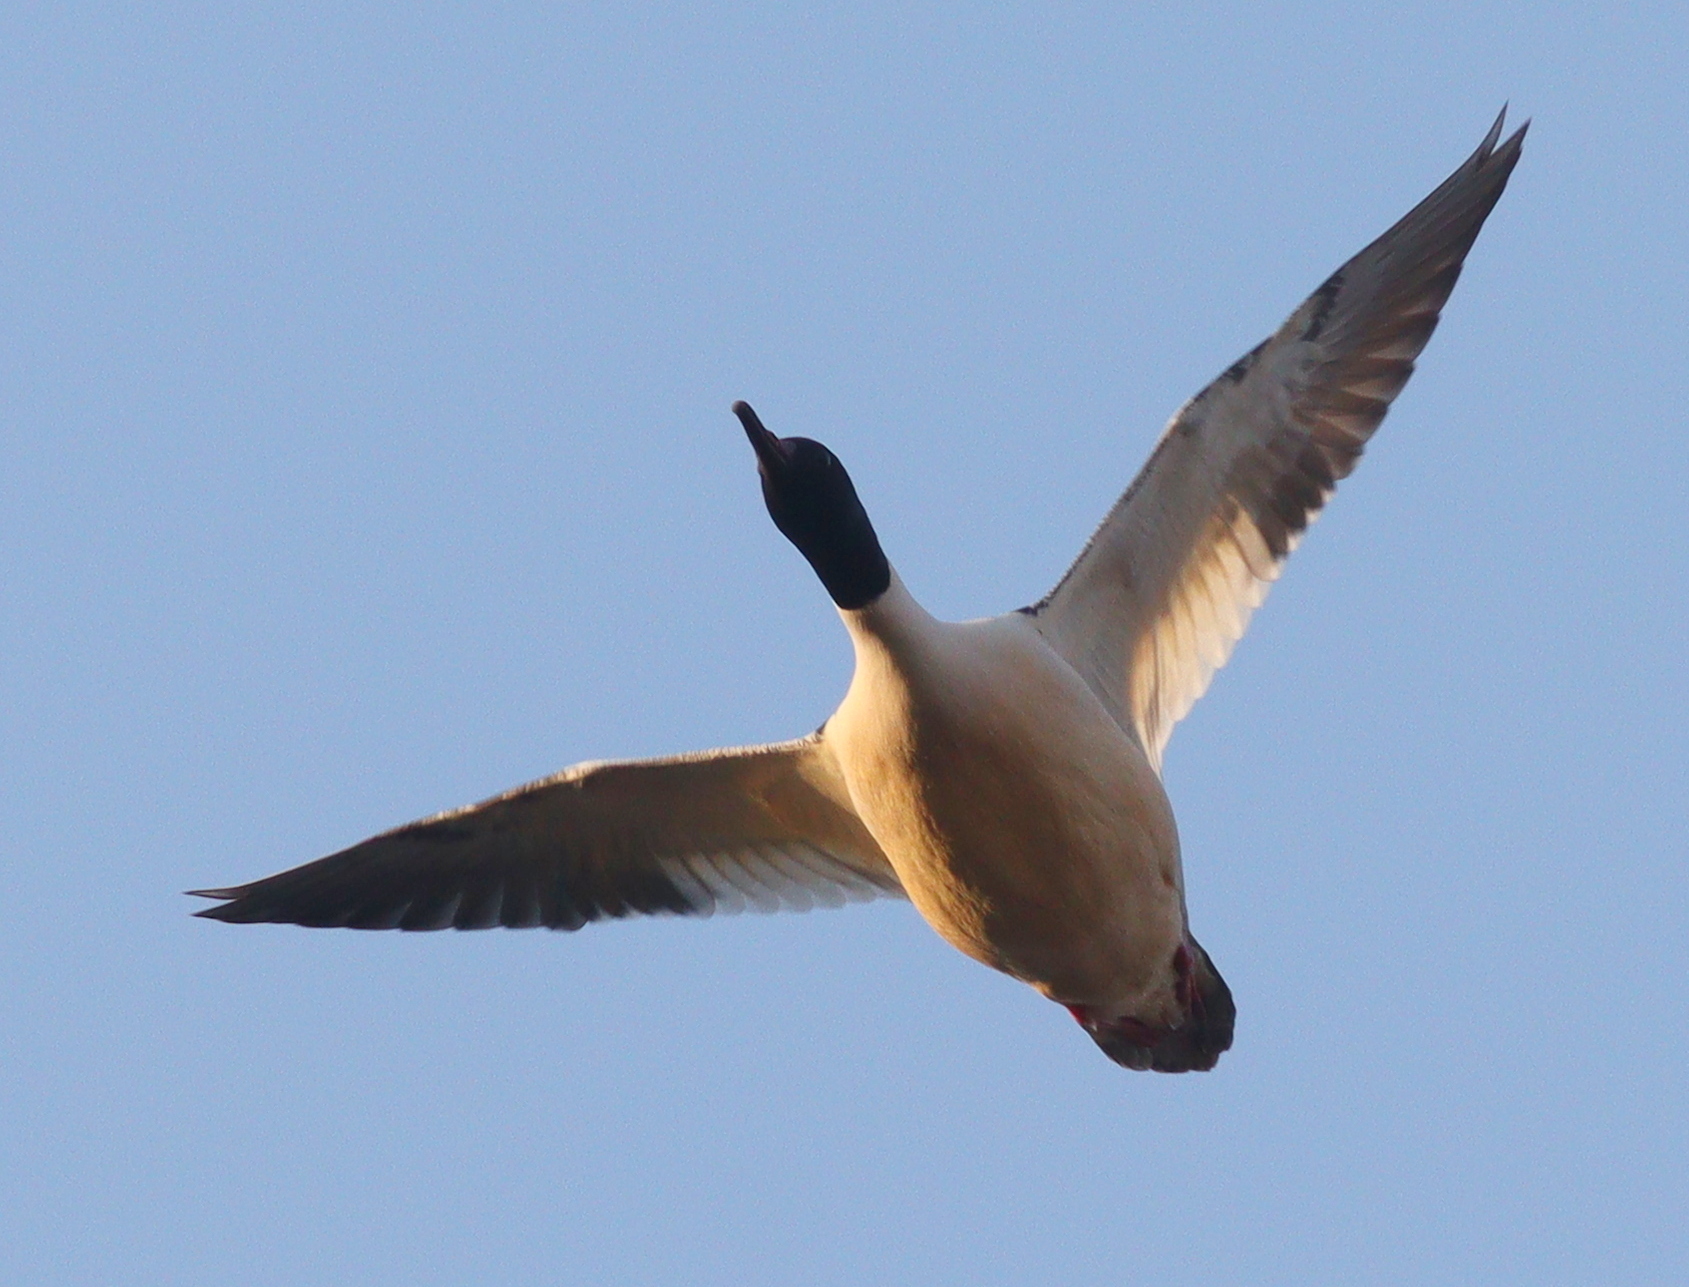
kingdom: Animalia
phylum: Chordata
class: Aves
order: Anseriformes
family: Anatidae
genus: Mergus
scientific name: Mergus merganser
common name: Common merganser
